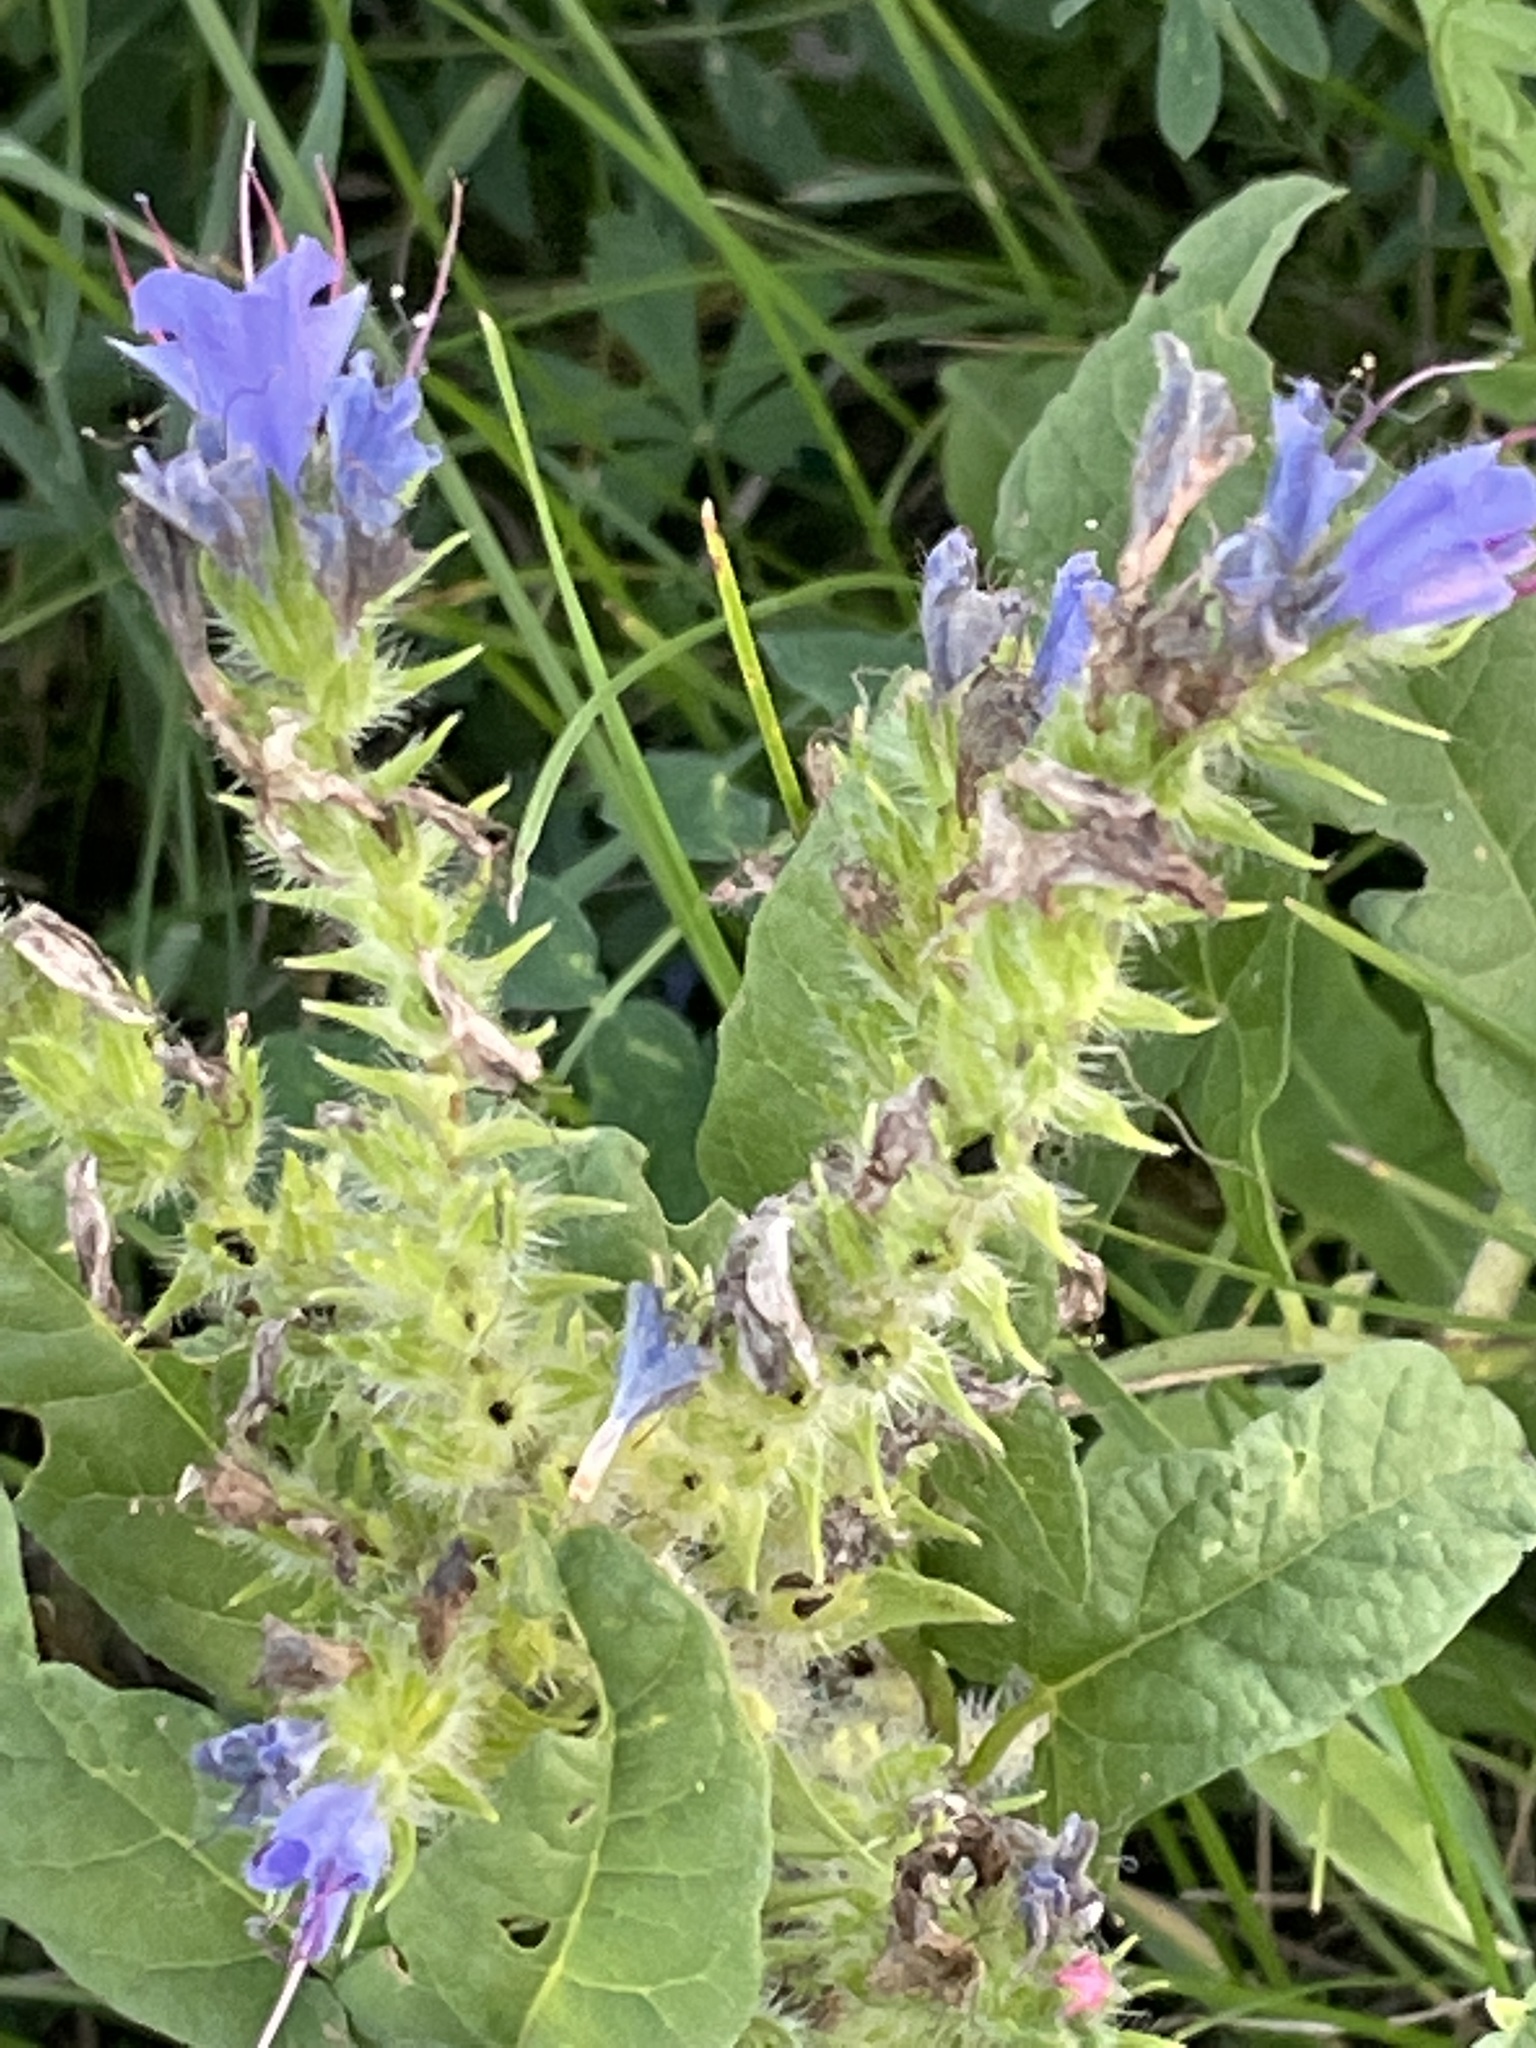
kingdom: Plantae
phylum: Tracheophyta
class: Magnoliopsida
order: Boraginales
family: Boraginaceae
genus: Echium
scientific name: Echium vulgare
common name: Common viper's bugloss
